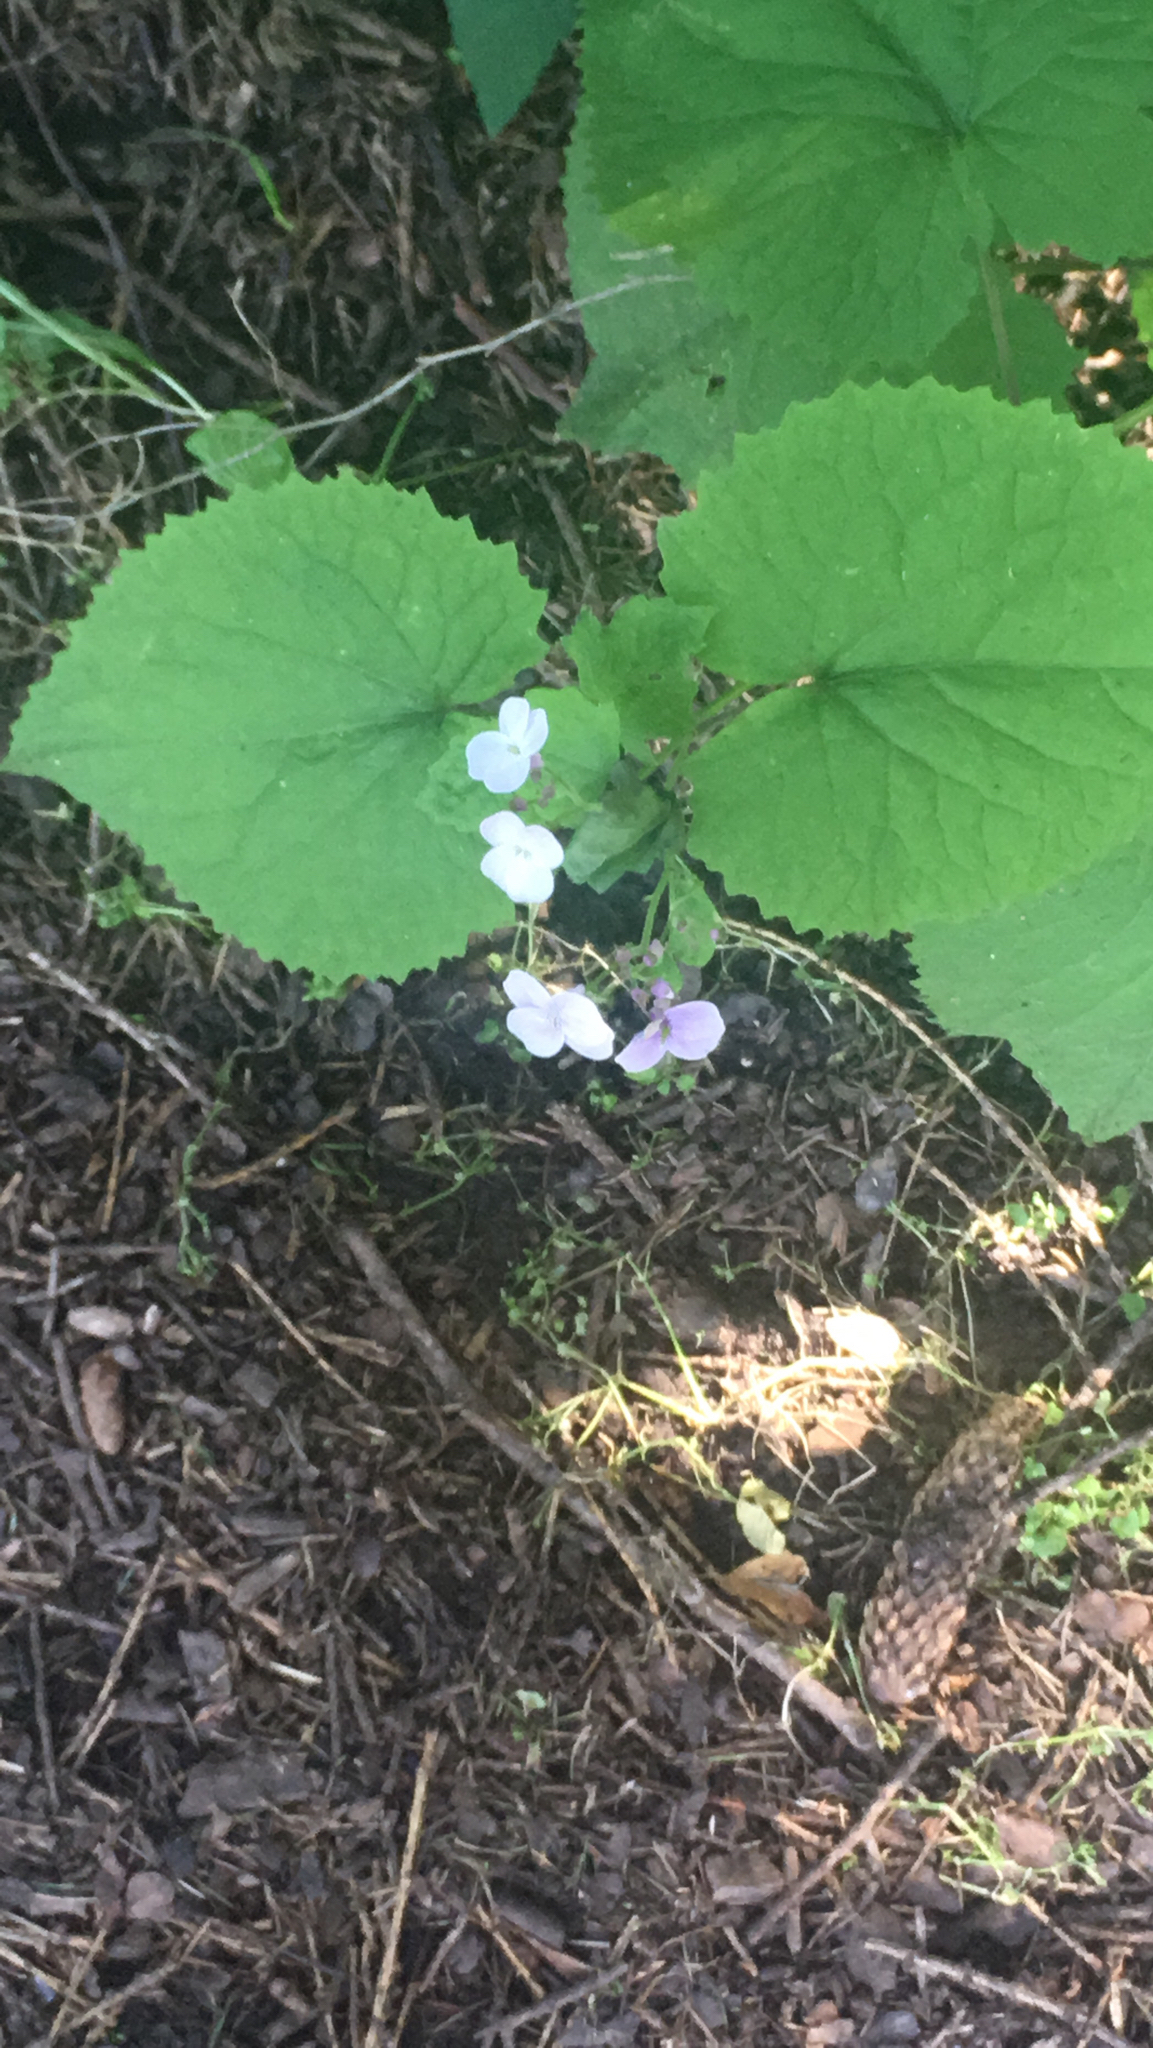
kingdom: Plantae
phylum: Tracheophyta
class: Magnoliopsida
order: Brassicales
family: Brassicaceae
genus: Lunaria
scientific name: Lunaria rediviva
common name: Perennial honesty
